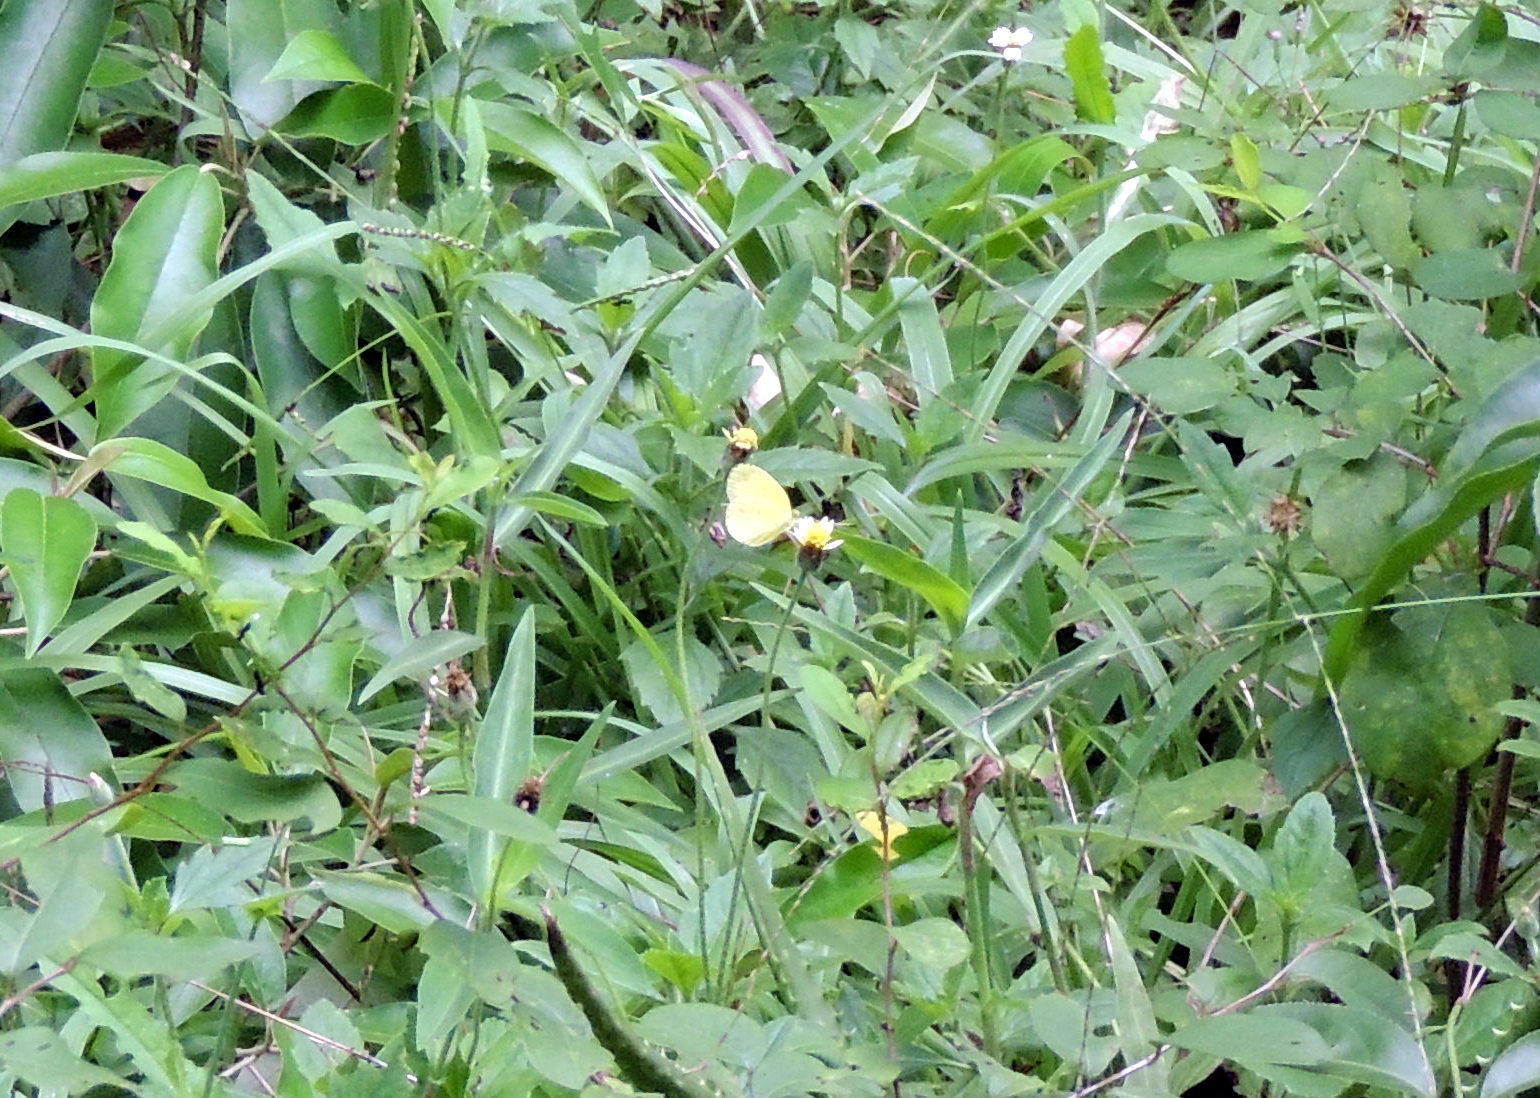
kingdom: Animalia
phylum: Arthropoda
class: Insecta
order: Lepidoptera
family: Pieridae
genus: Eurema
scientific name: Eurema floricola
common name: Malagasy grass yellow
